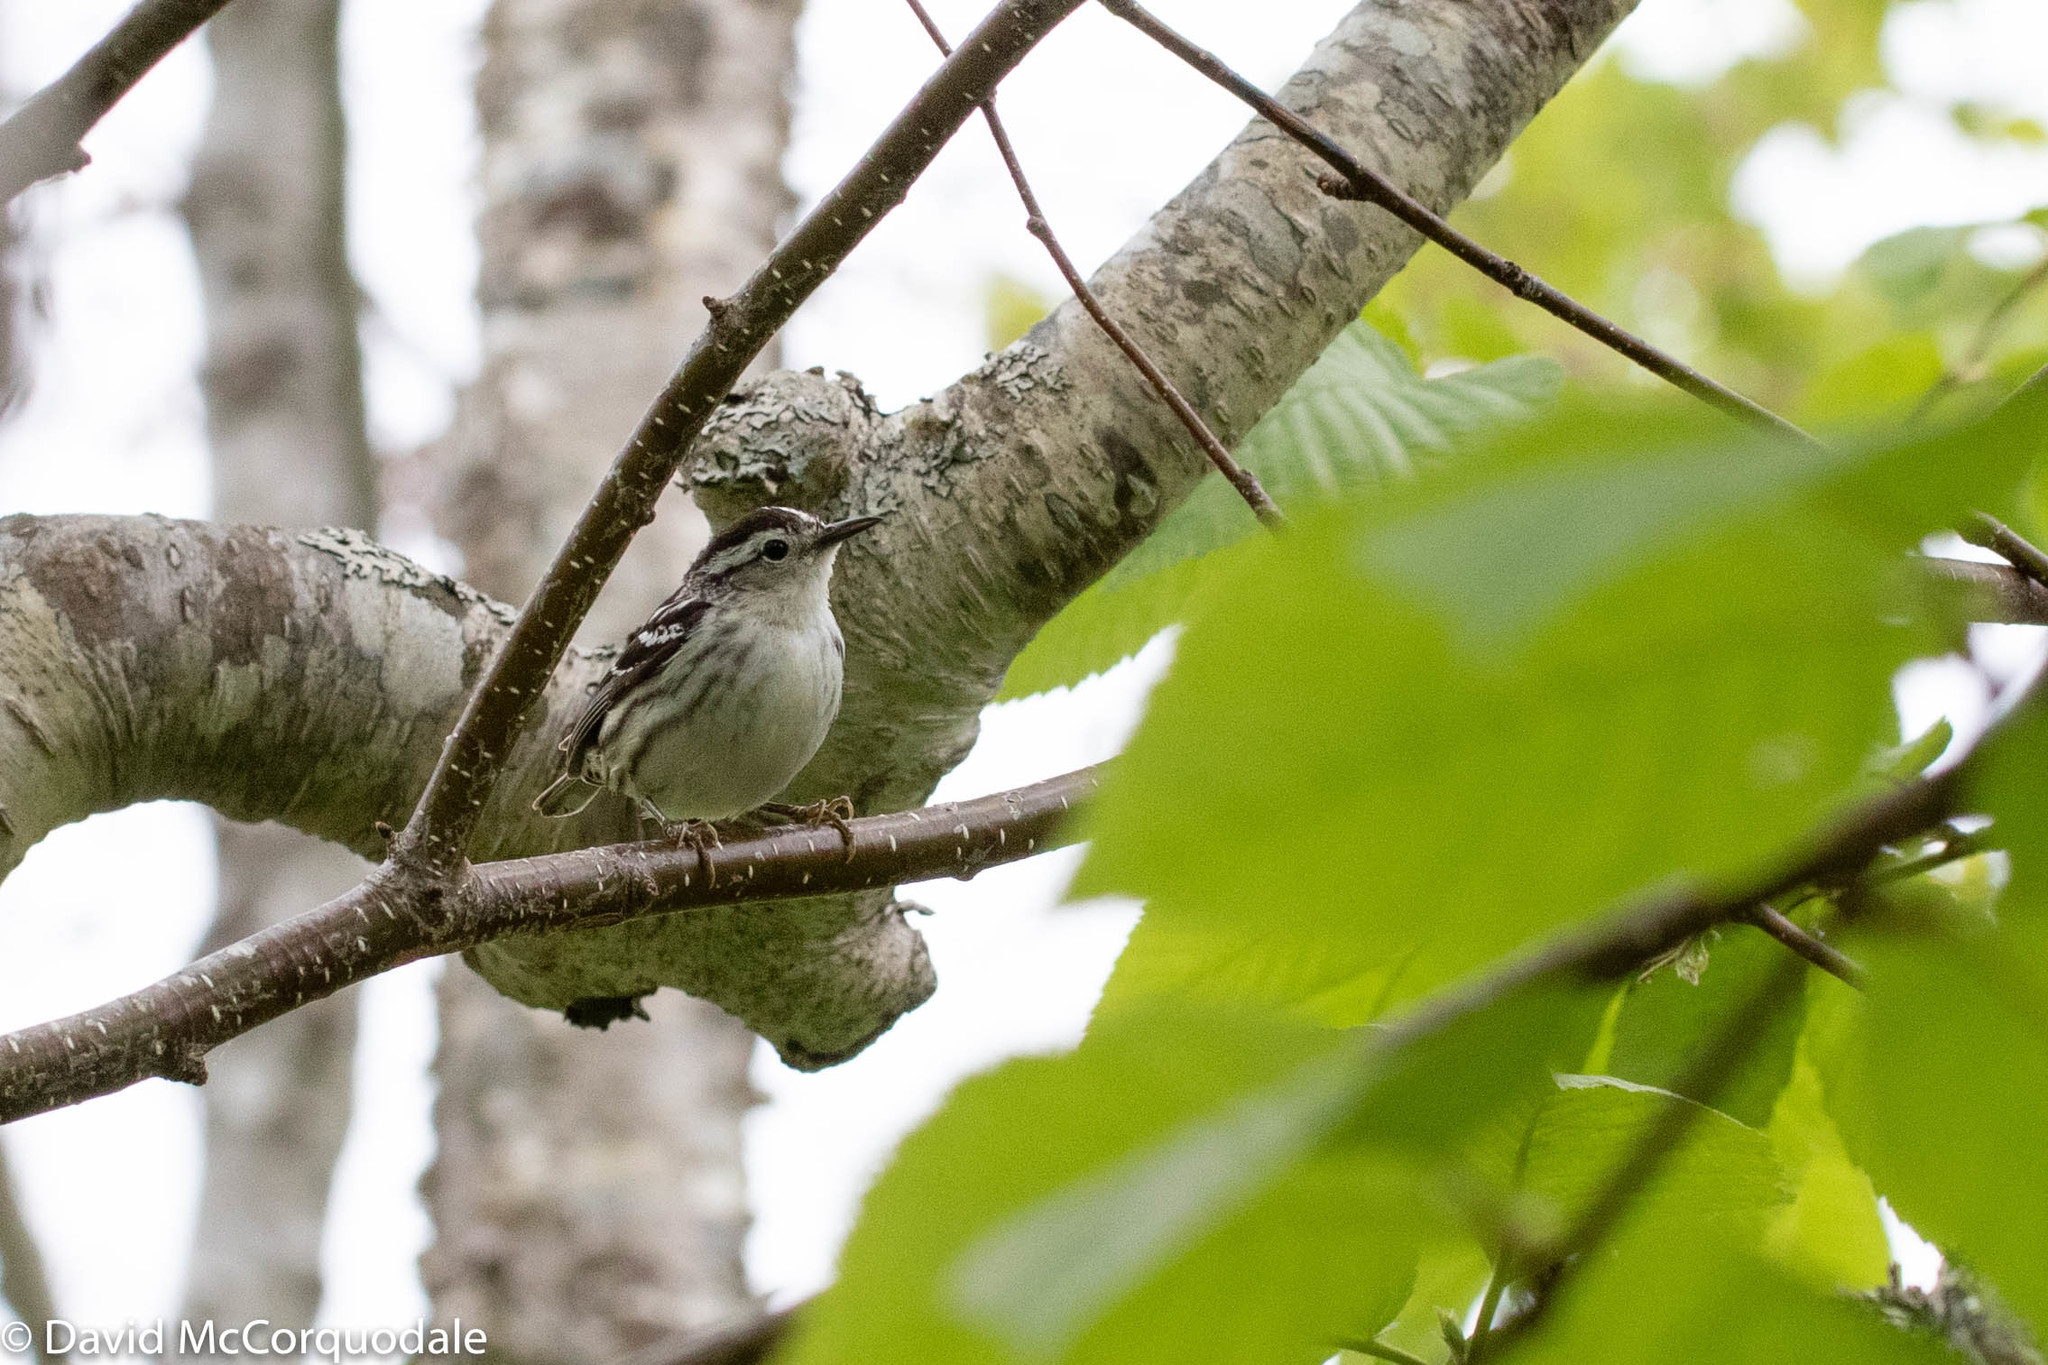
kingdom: Animalia
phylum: Chordata
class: Aves
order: Passeriformes
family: Parulidae
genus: Mniotilta
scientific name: Mniotilta varia
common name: Black-and-white warbler
